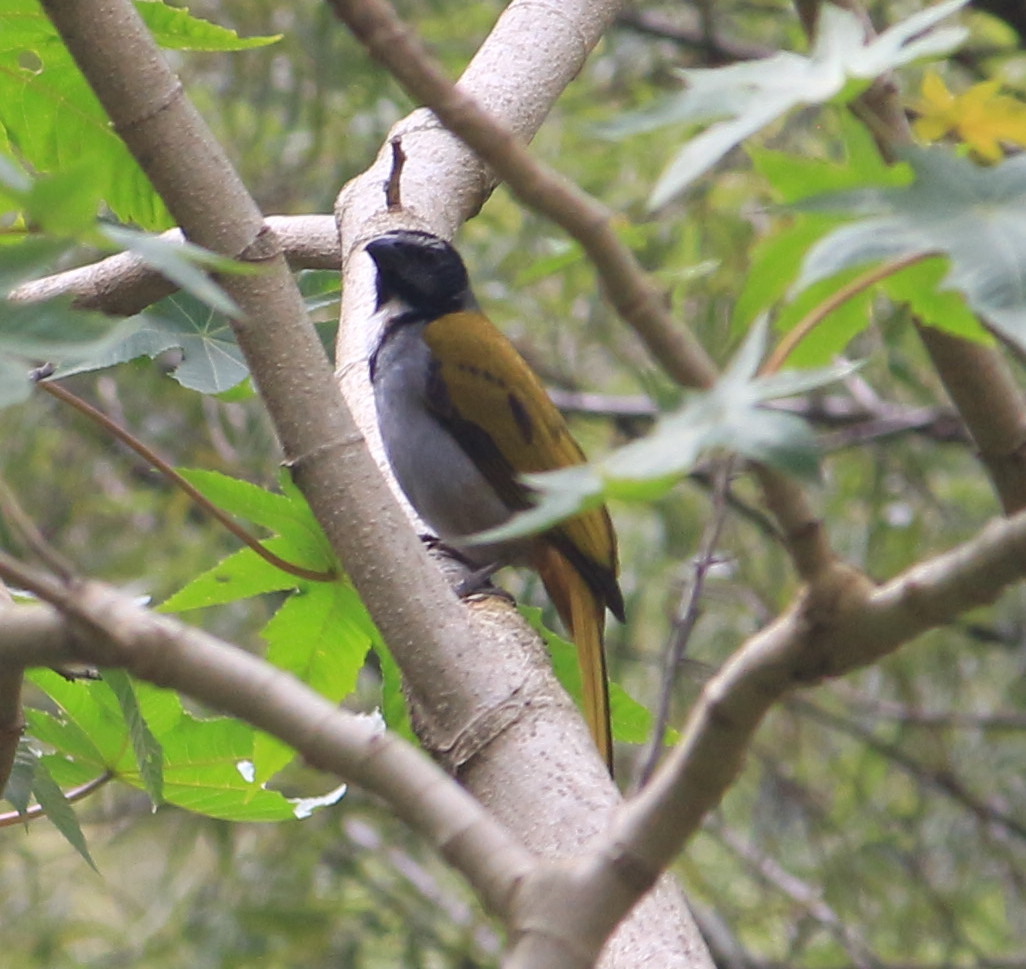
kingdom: Animalia
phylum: Chordata
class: Aves
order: Passeriformes
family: Thraupidae
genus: Saltator
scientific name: Saltator atriceps
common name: Black-headed saltator
